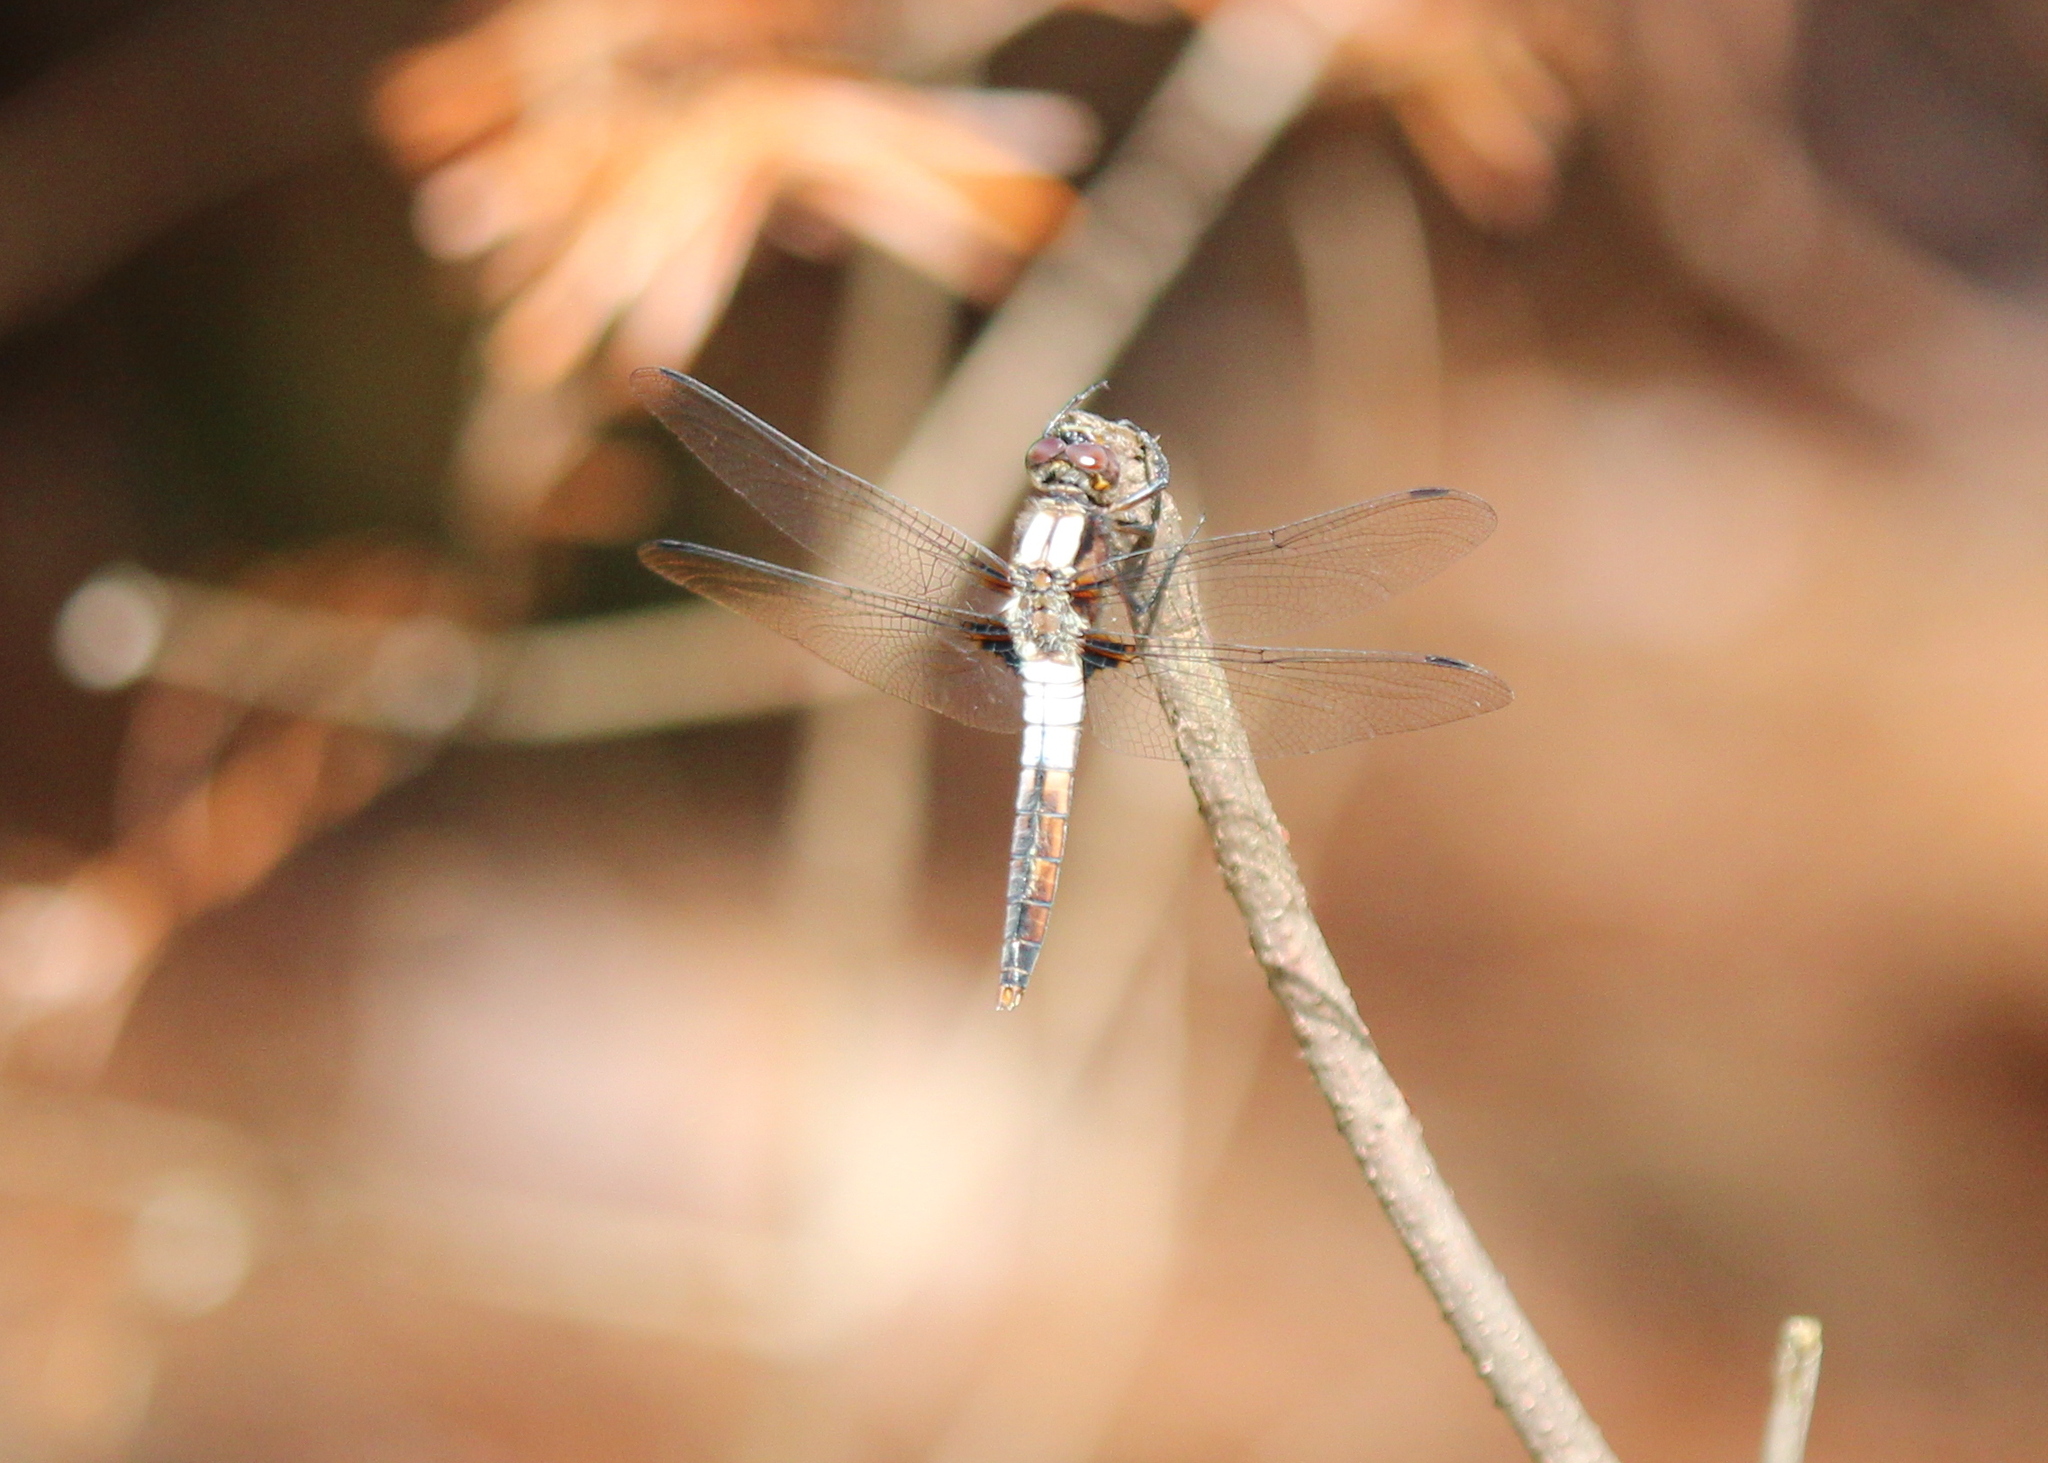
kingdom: Animalia
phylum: Arthropoda
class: Insecta
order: Odonata
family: Libellulidae
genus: Ladona
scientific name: Ladona julia
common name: Chalk-fronted corporal
